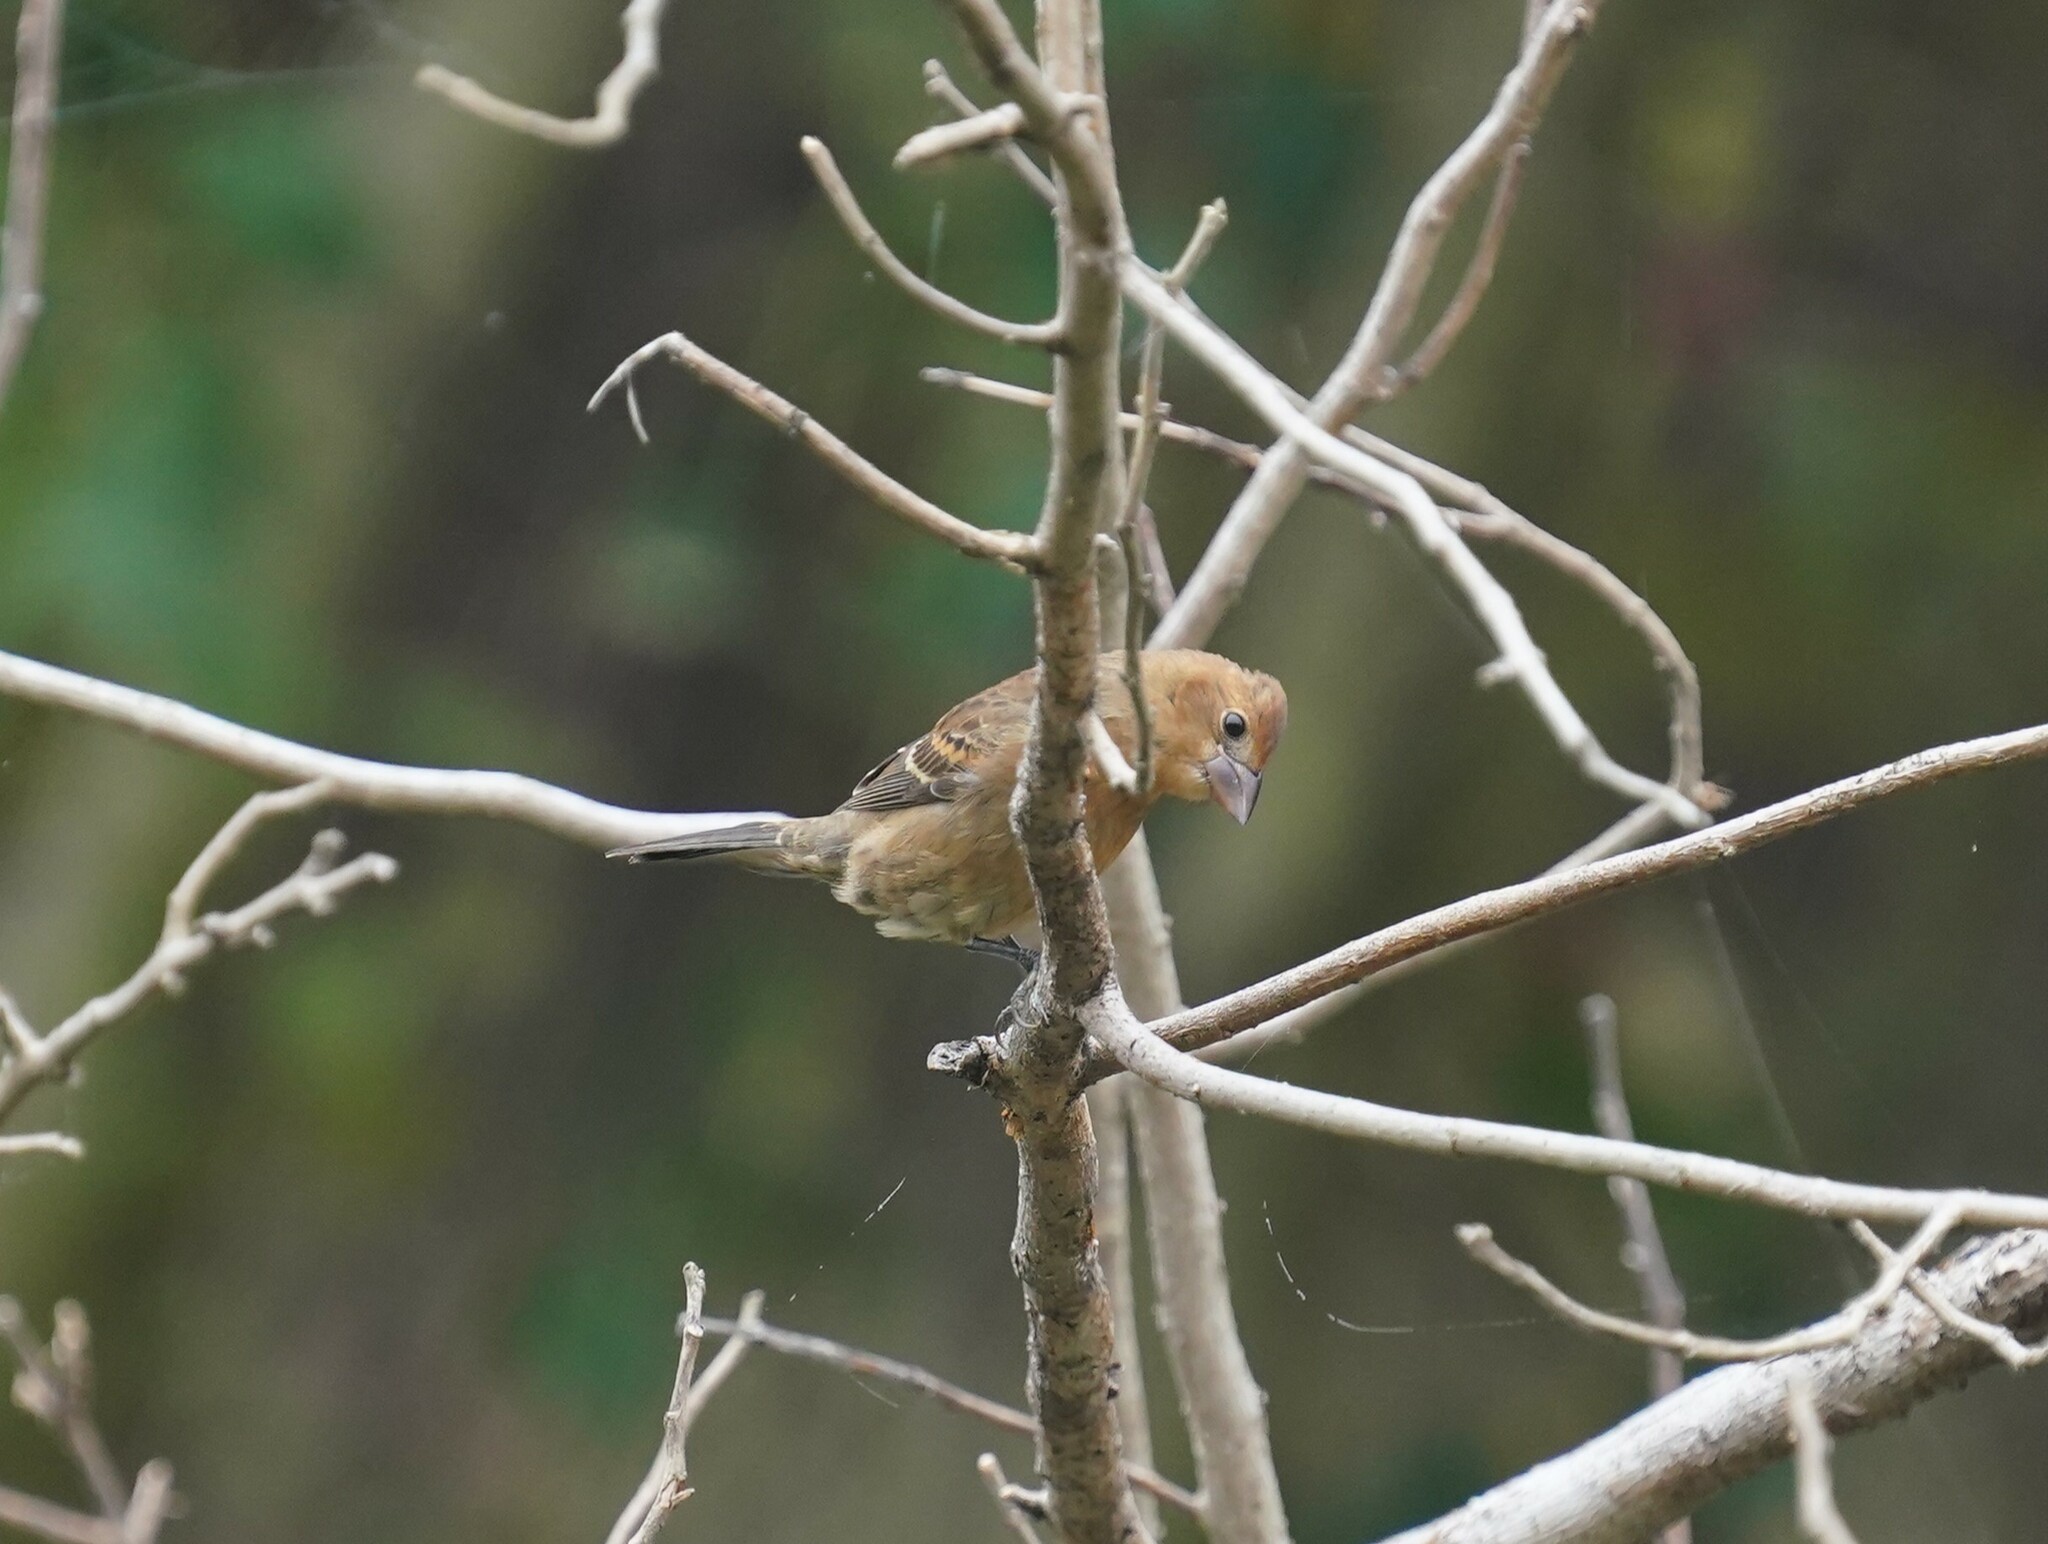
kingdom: Animalia
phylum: Chordata
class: Aves
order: Passeriformes
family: Cardinalidae
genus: Passerina
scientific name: Passerina caerulea
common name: Blue grosbeak
